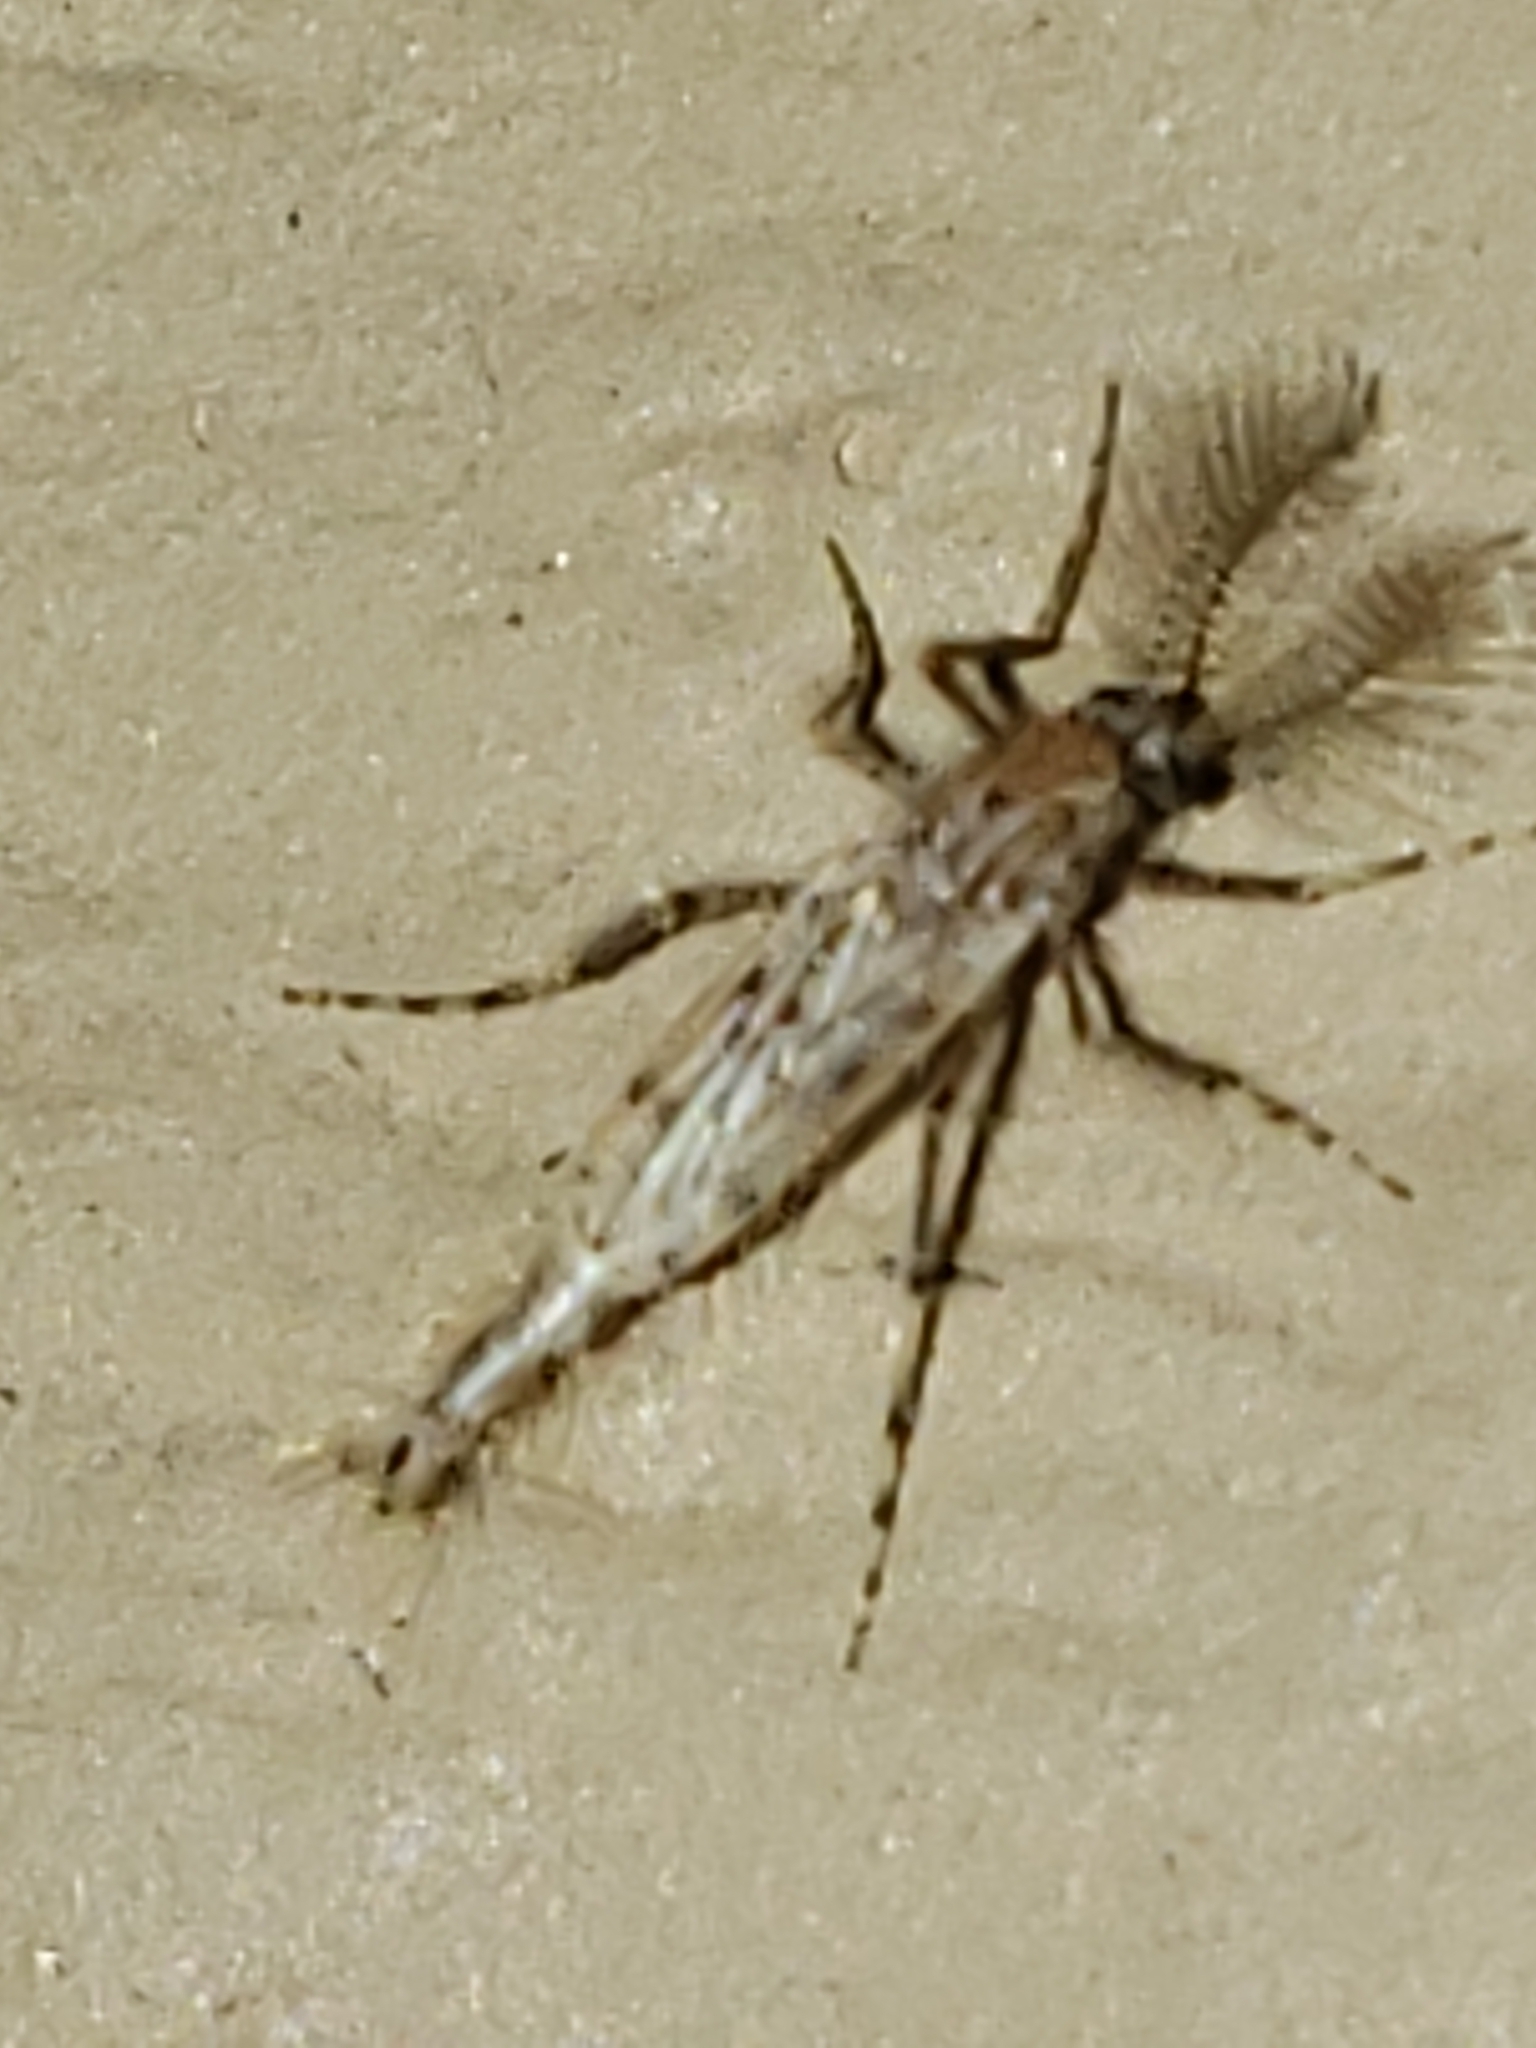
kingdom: Animalia
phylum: Arthropoda
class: Insecta
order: Diptera
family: Chaoboridae
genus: Chaoborus
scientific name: Chaoborus punctipennis
